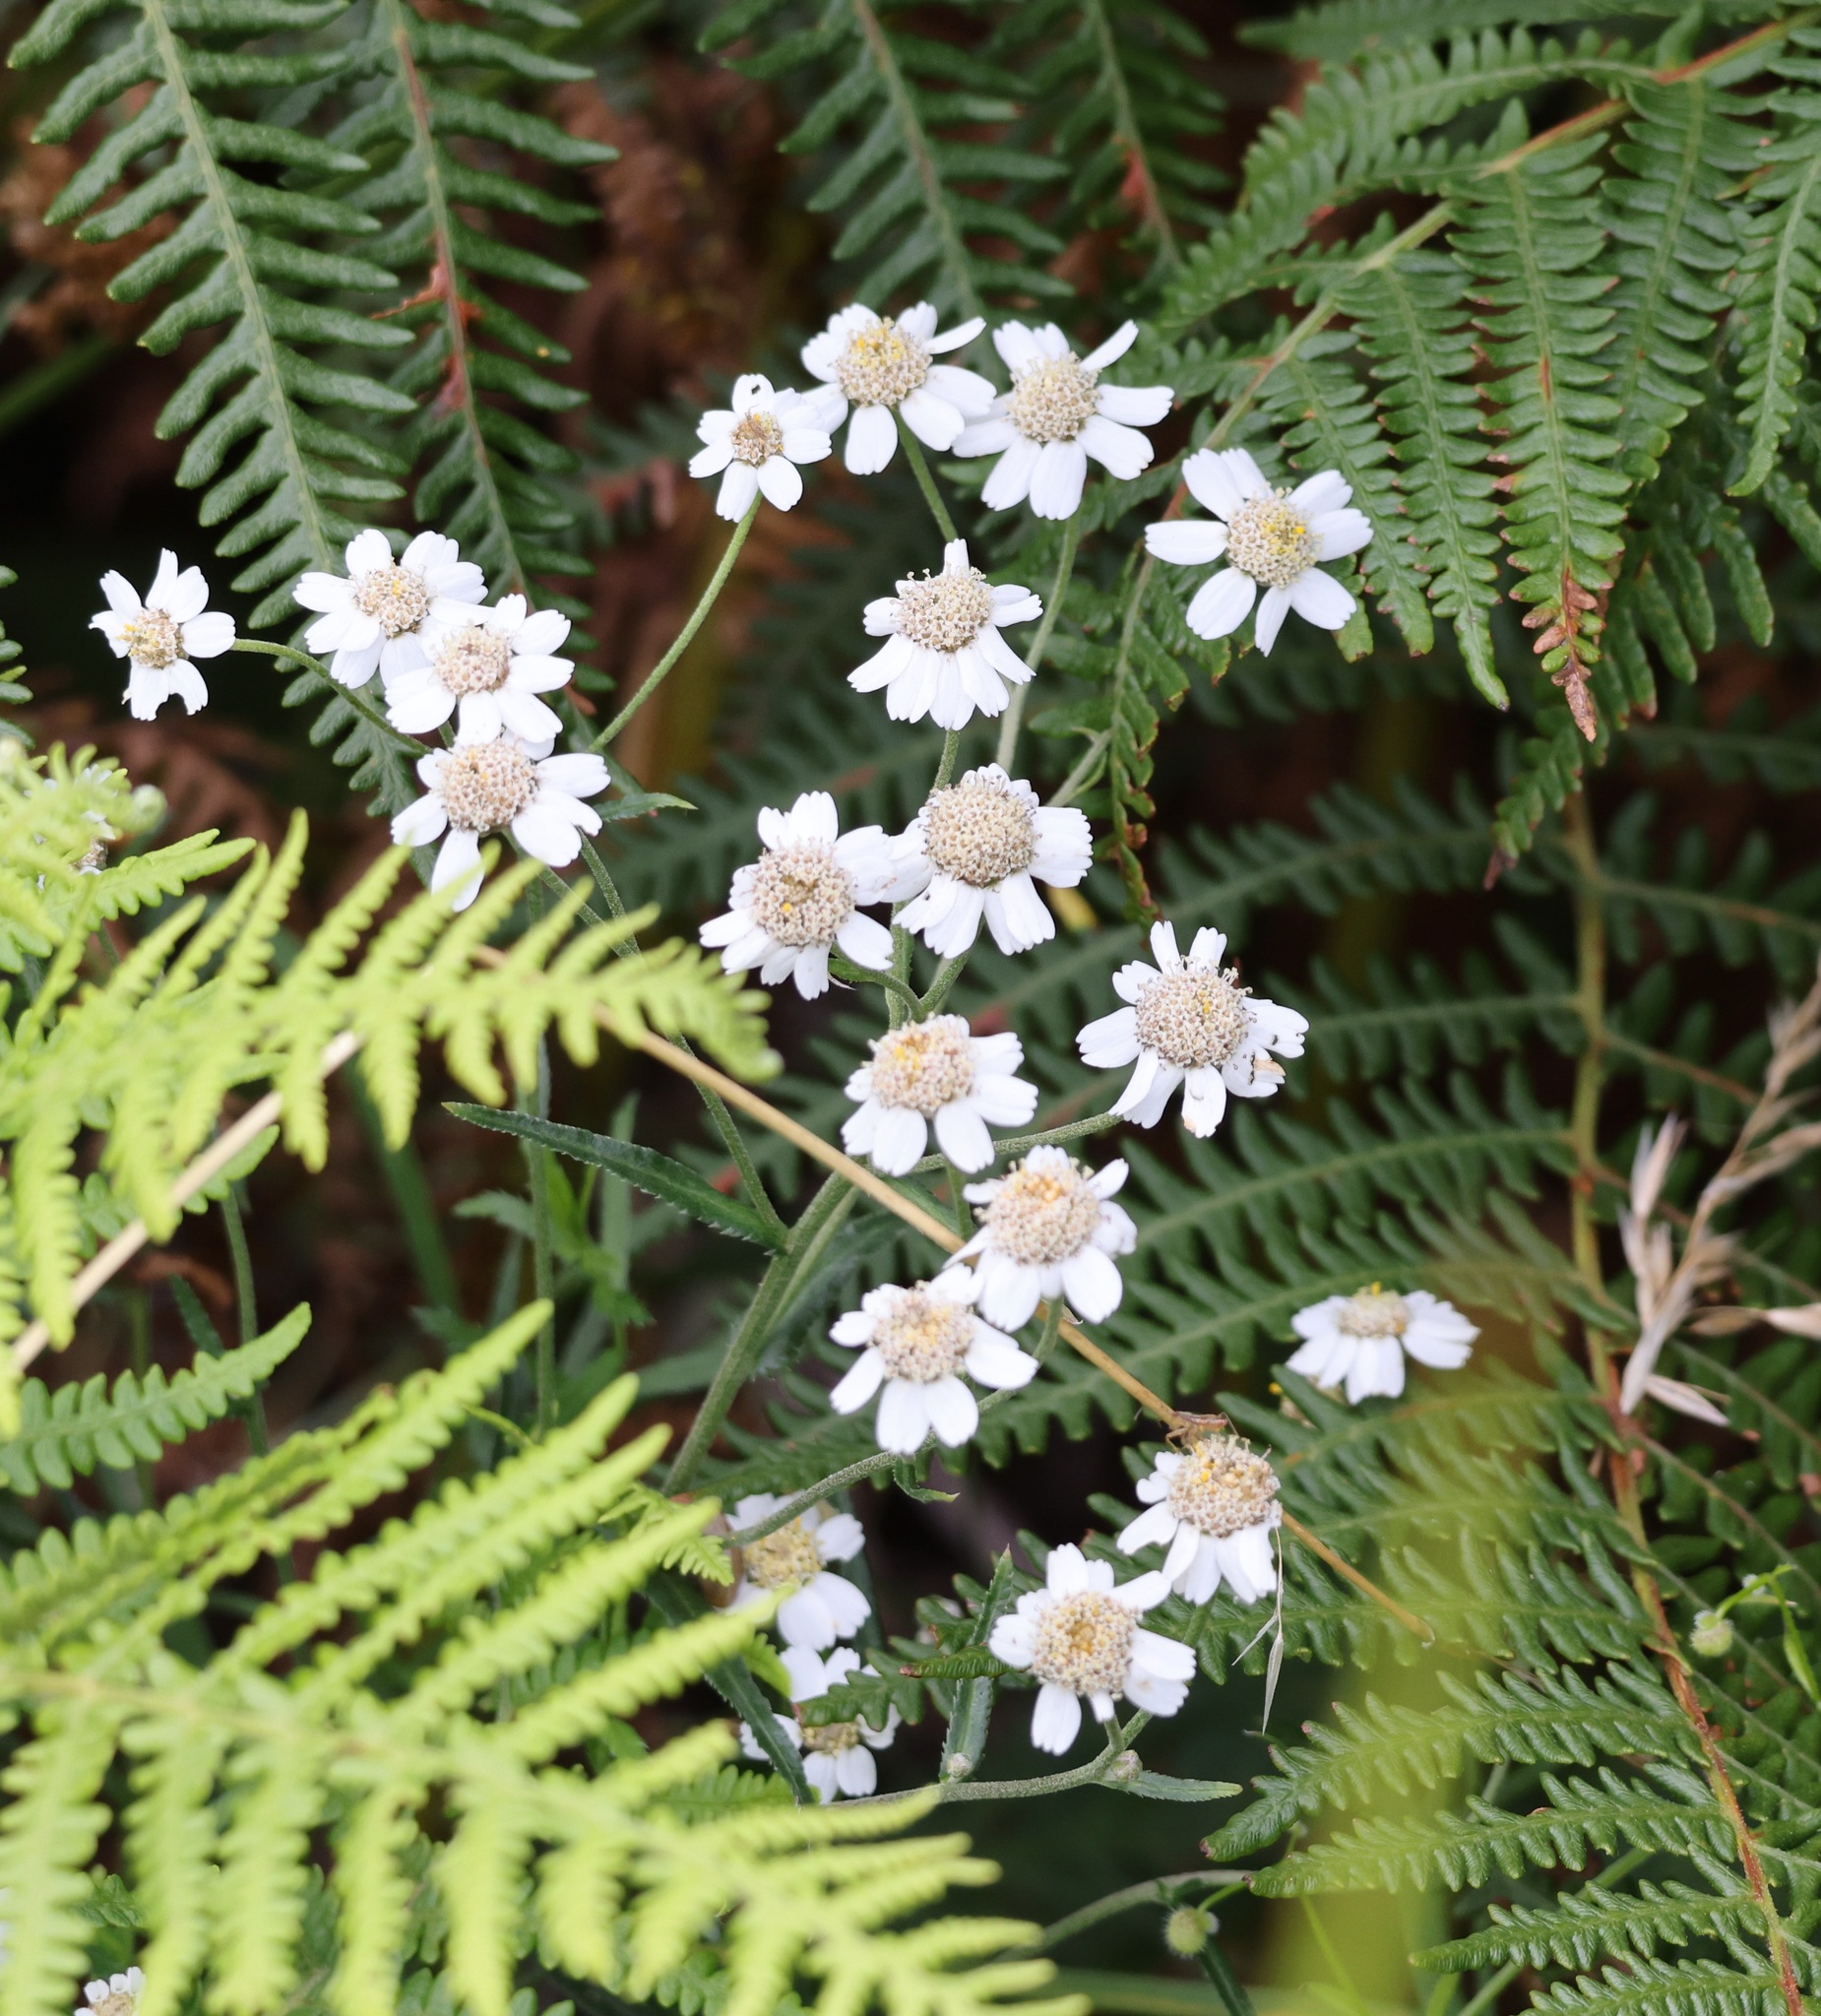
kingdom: Plantae
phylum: Tracheophyta
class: Magnoliopsida
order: Asterales
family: Asteraceae
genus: Achillea
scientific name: Achillea ptarmica
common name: Sneezeweed
